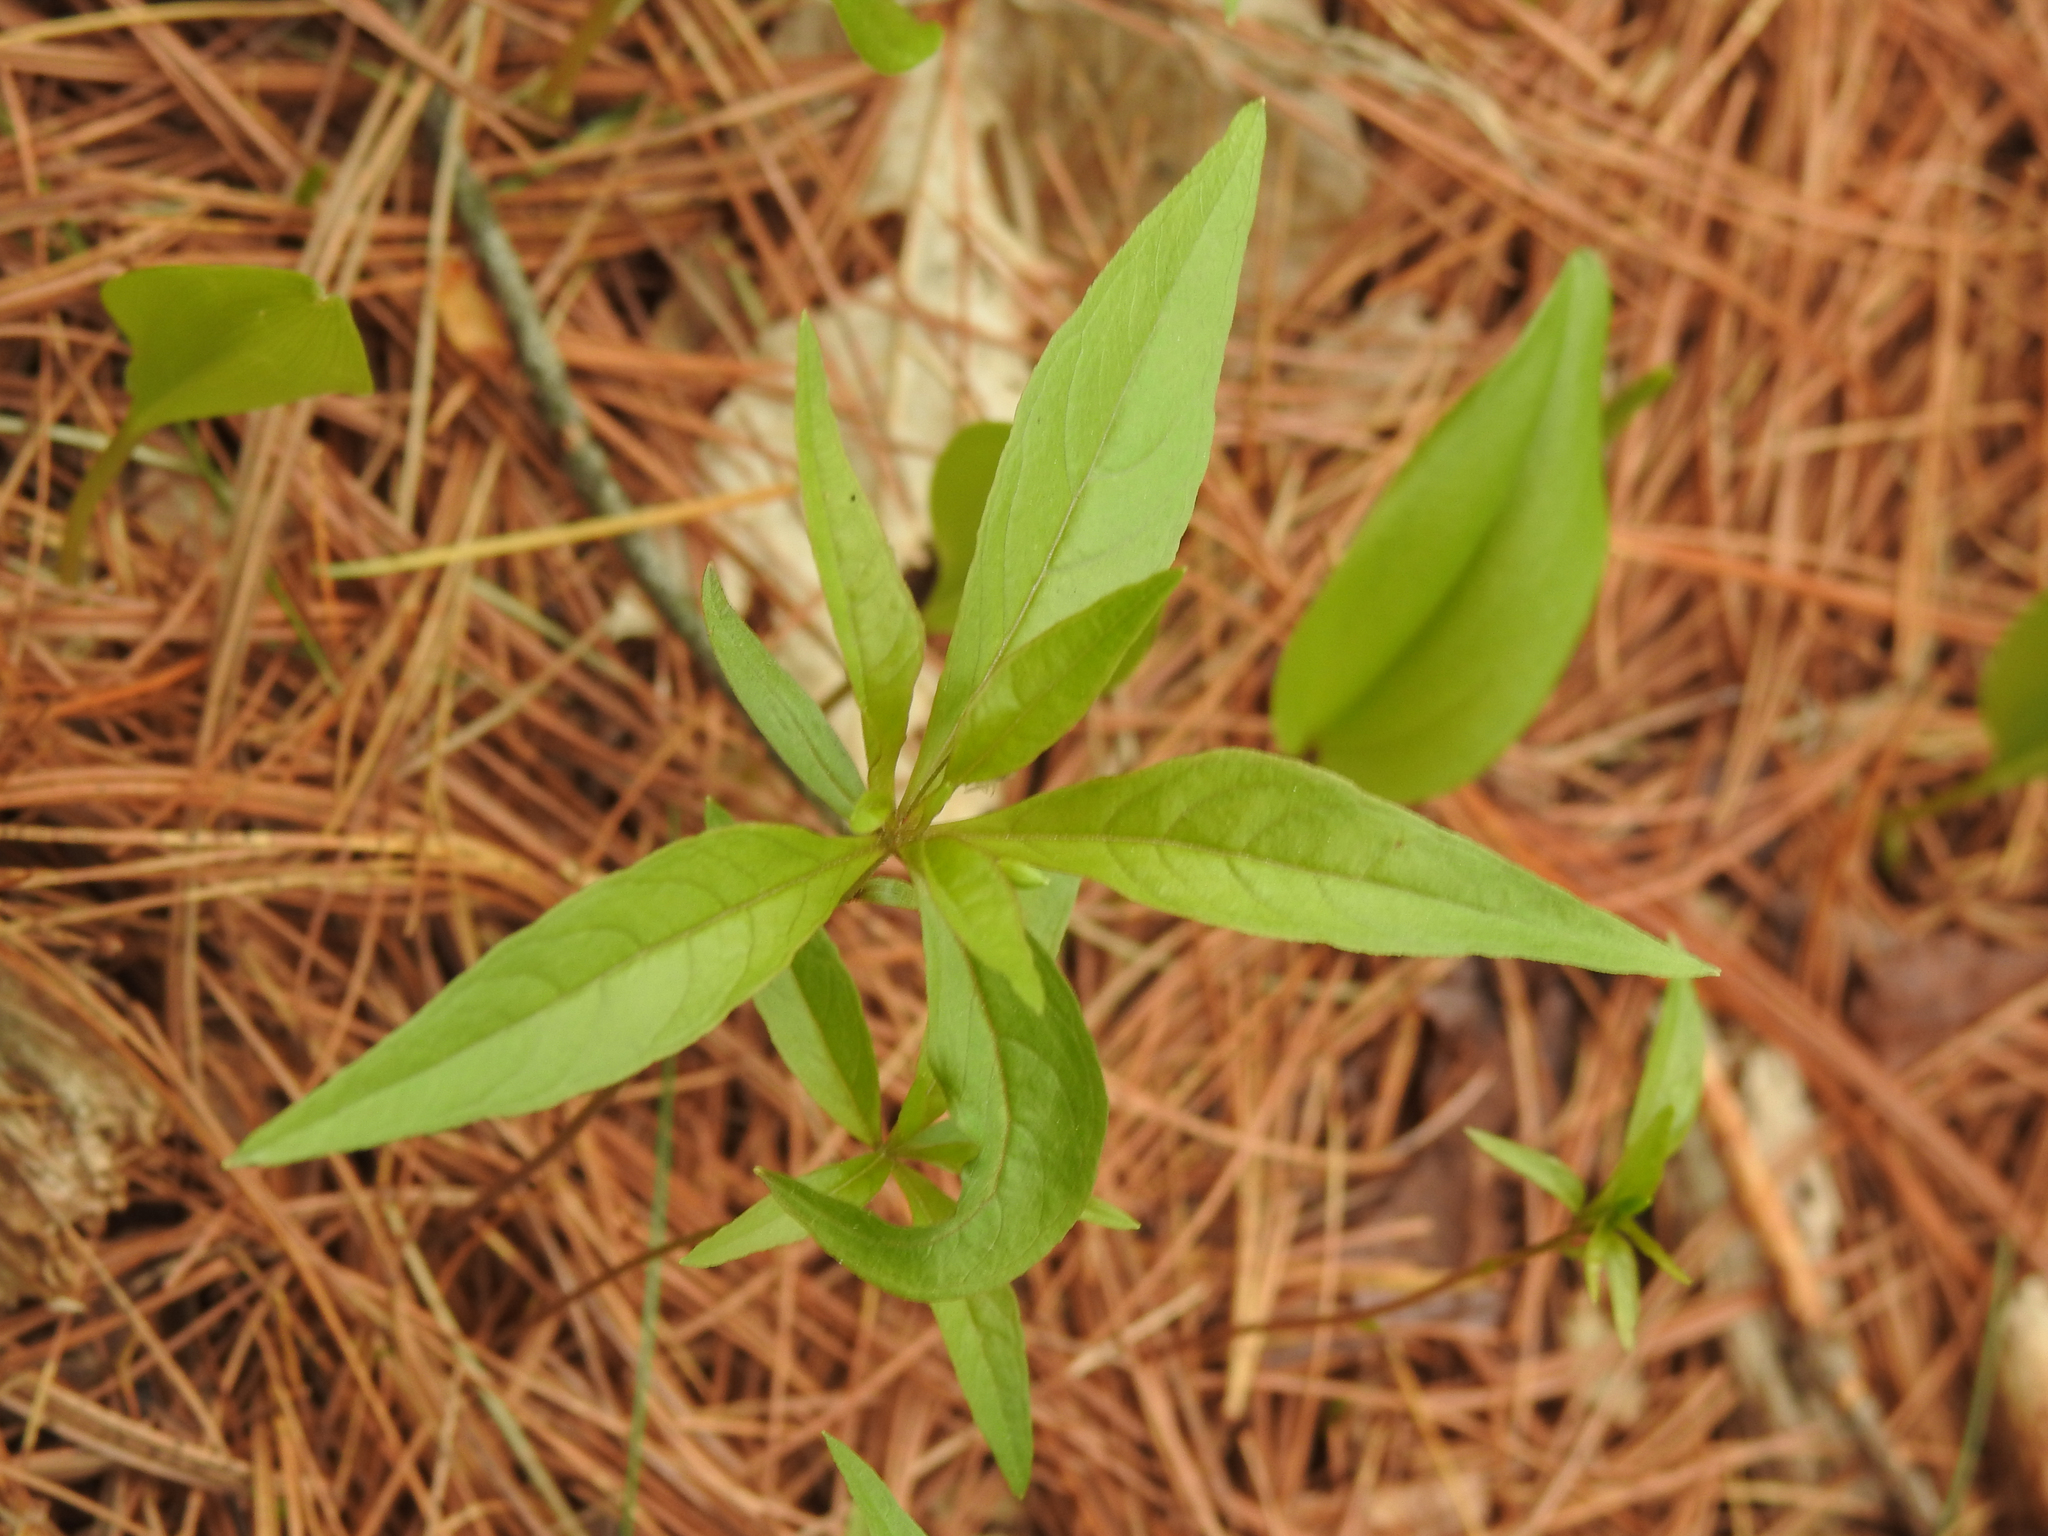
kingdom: Plantae
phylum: Tracheophyta
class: Magnoliopsida
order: Ericales
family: Primulaceae
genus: Lysimachia
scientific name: Lysimachia borealis
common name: American starflower
